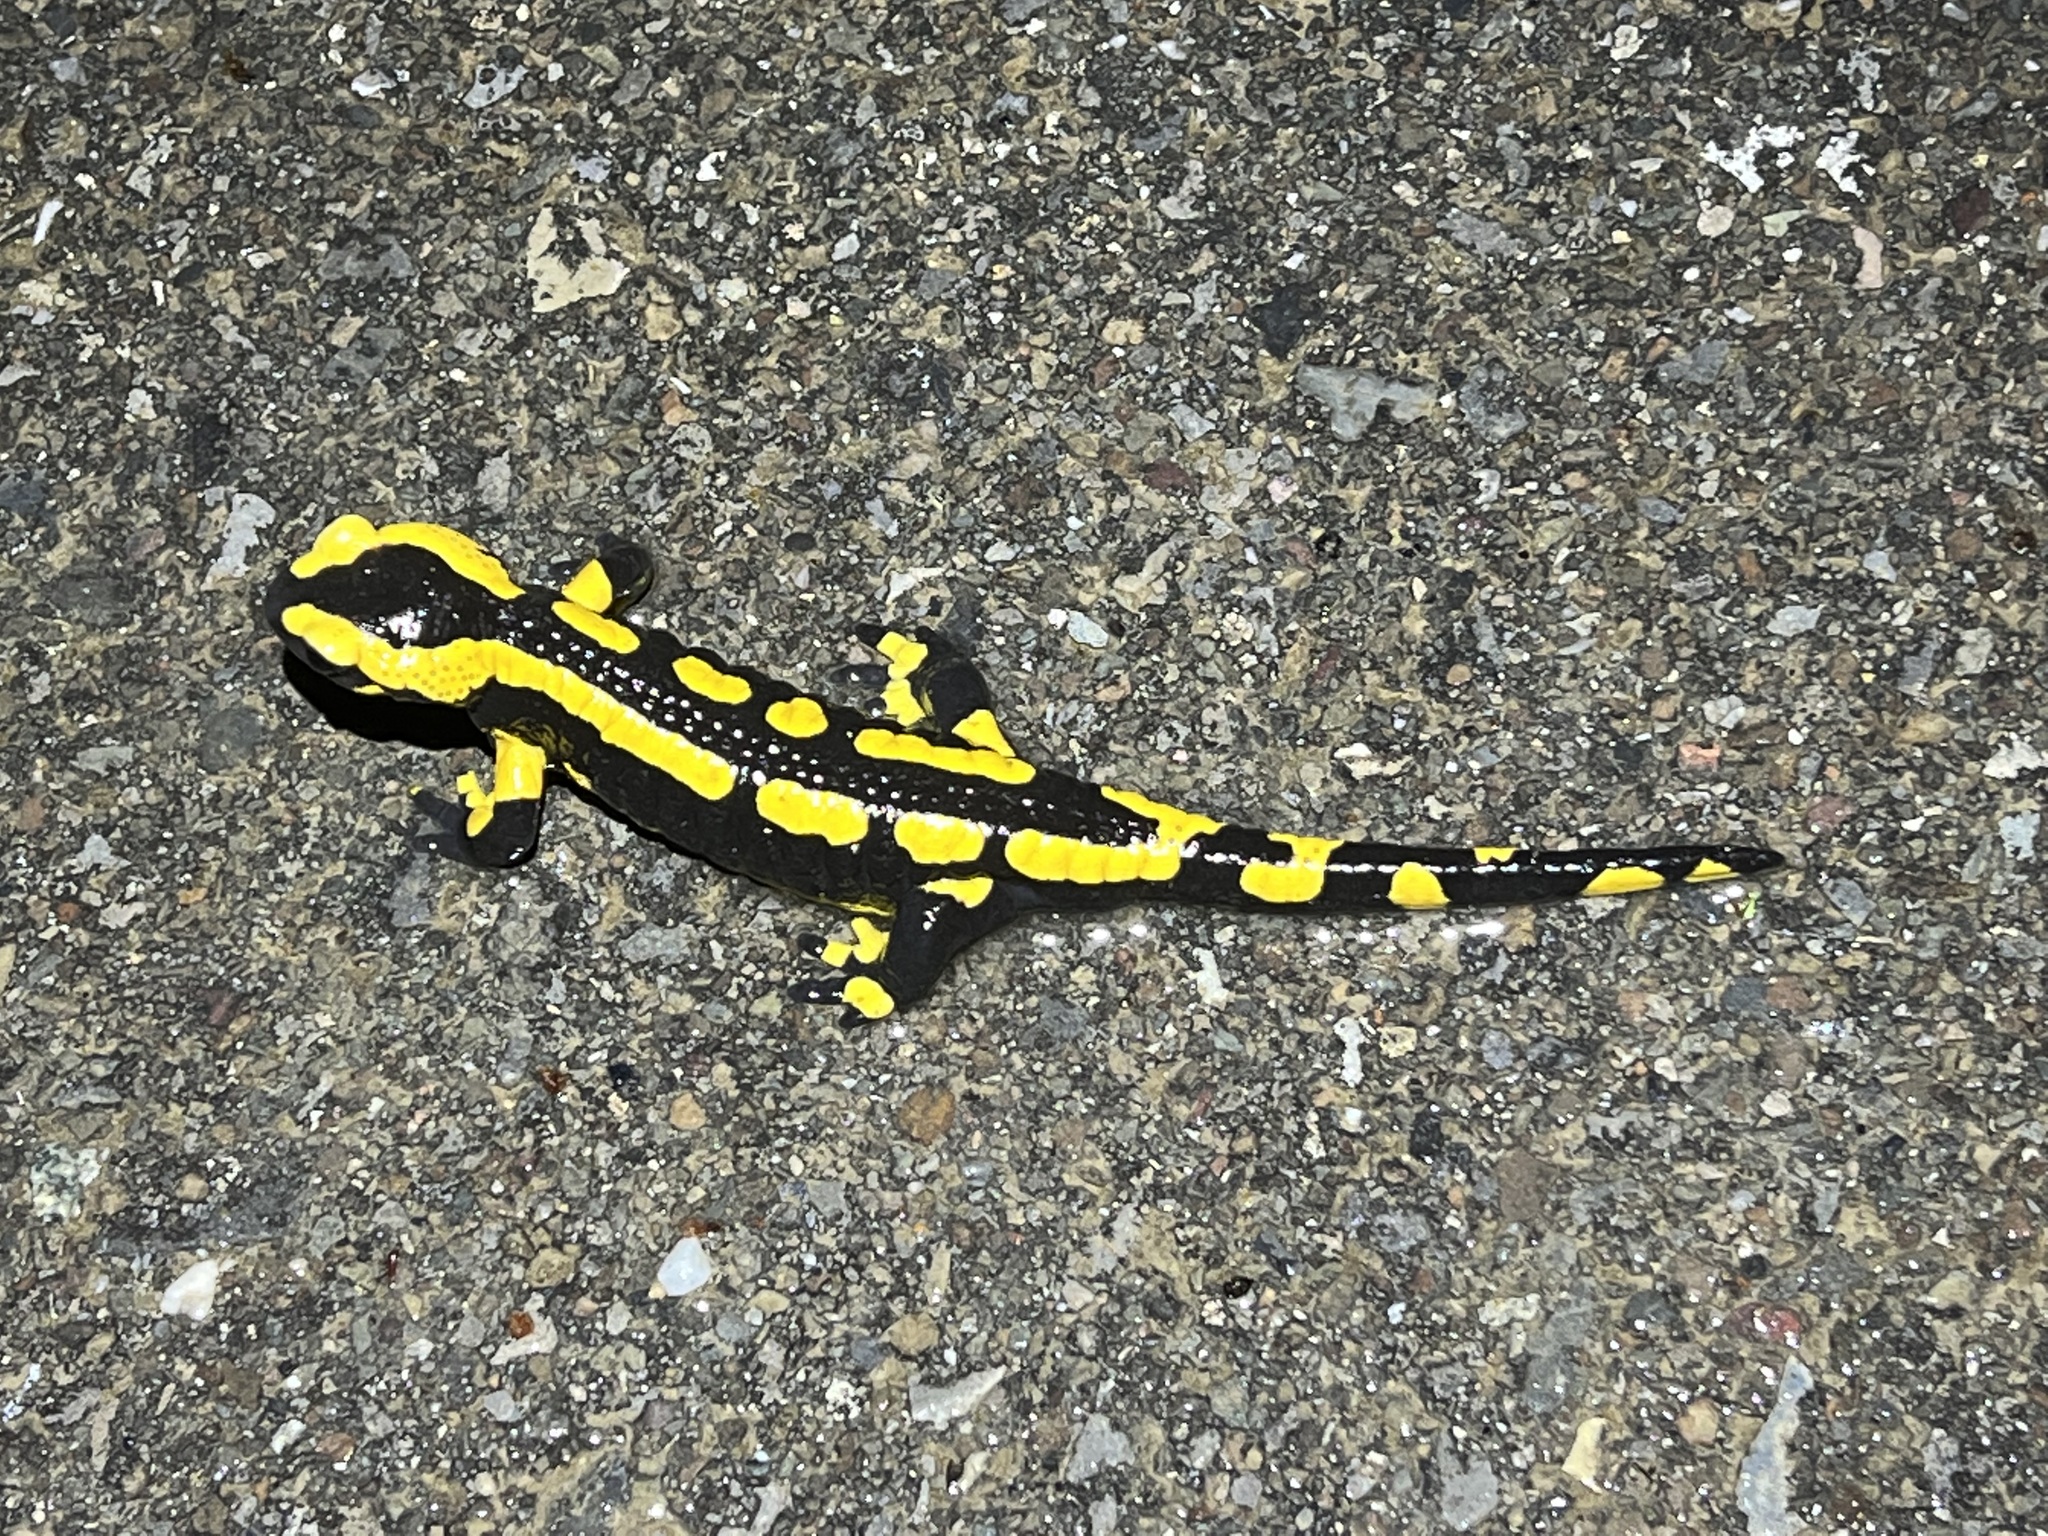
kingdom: Animalia
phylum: Chordata
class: Amphibia
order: Caudata
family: Salamandridae
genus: Salamandra
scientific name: Salamandra salamandra
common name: Fire salamander
